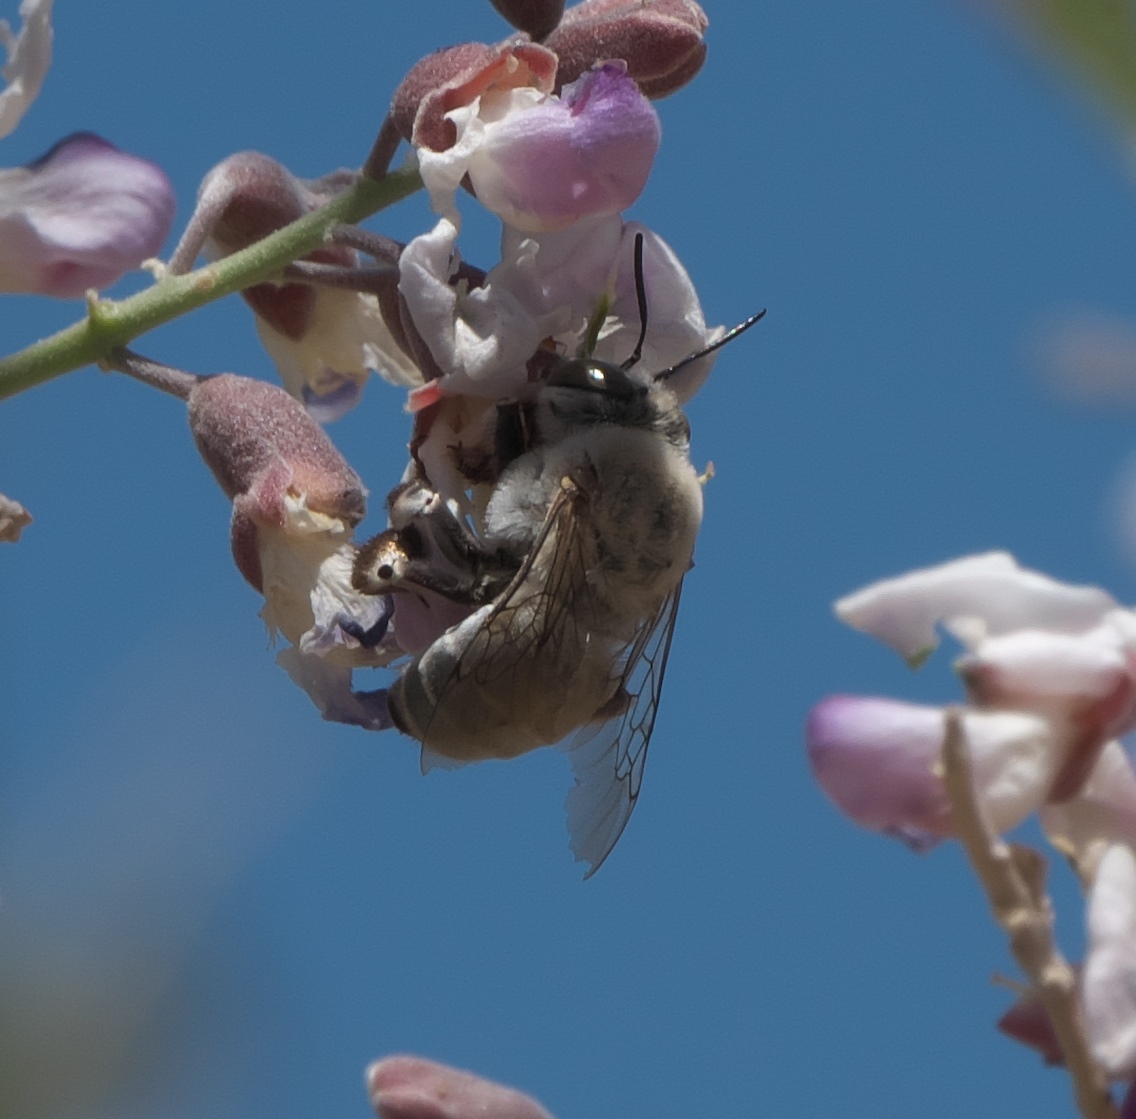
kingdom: Animalia
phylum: Arthropoda
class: Insecta
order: Hymenoptera
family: Apidae
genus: Centris
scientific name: Centris pallida
